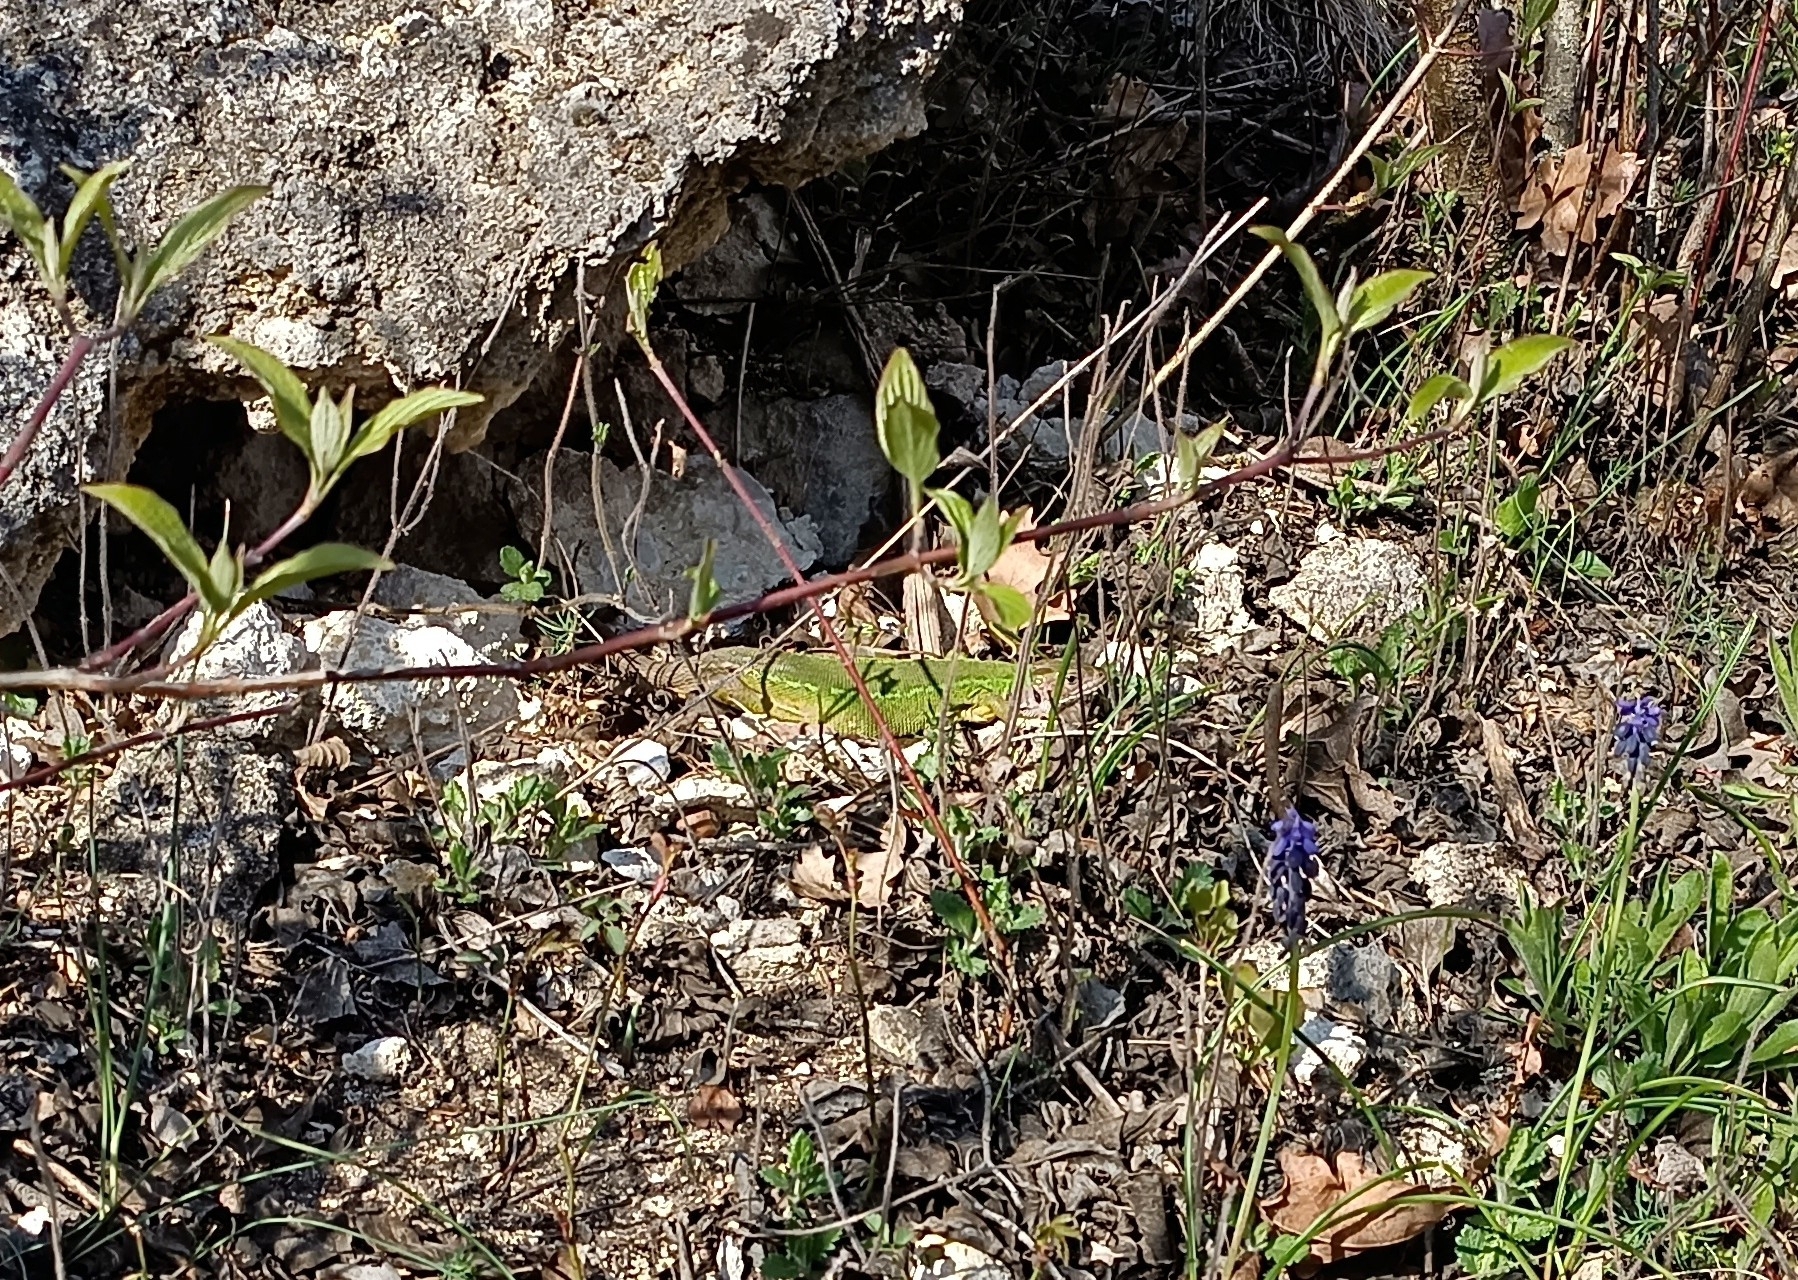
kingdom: Animalia
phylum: Chordata
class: Squamata
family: Lacertidae
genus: Lacerta
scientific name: Lacerta viridis
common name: European green lizard
